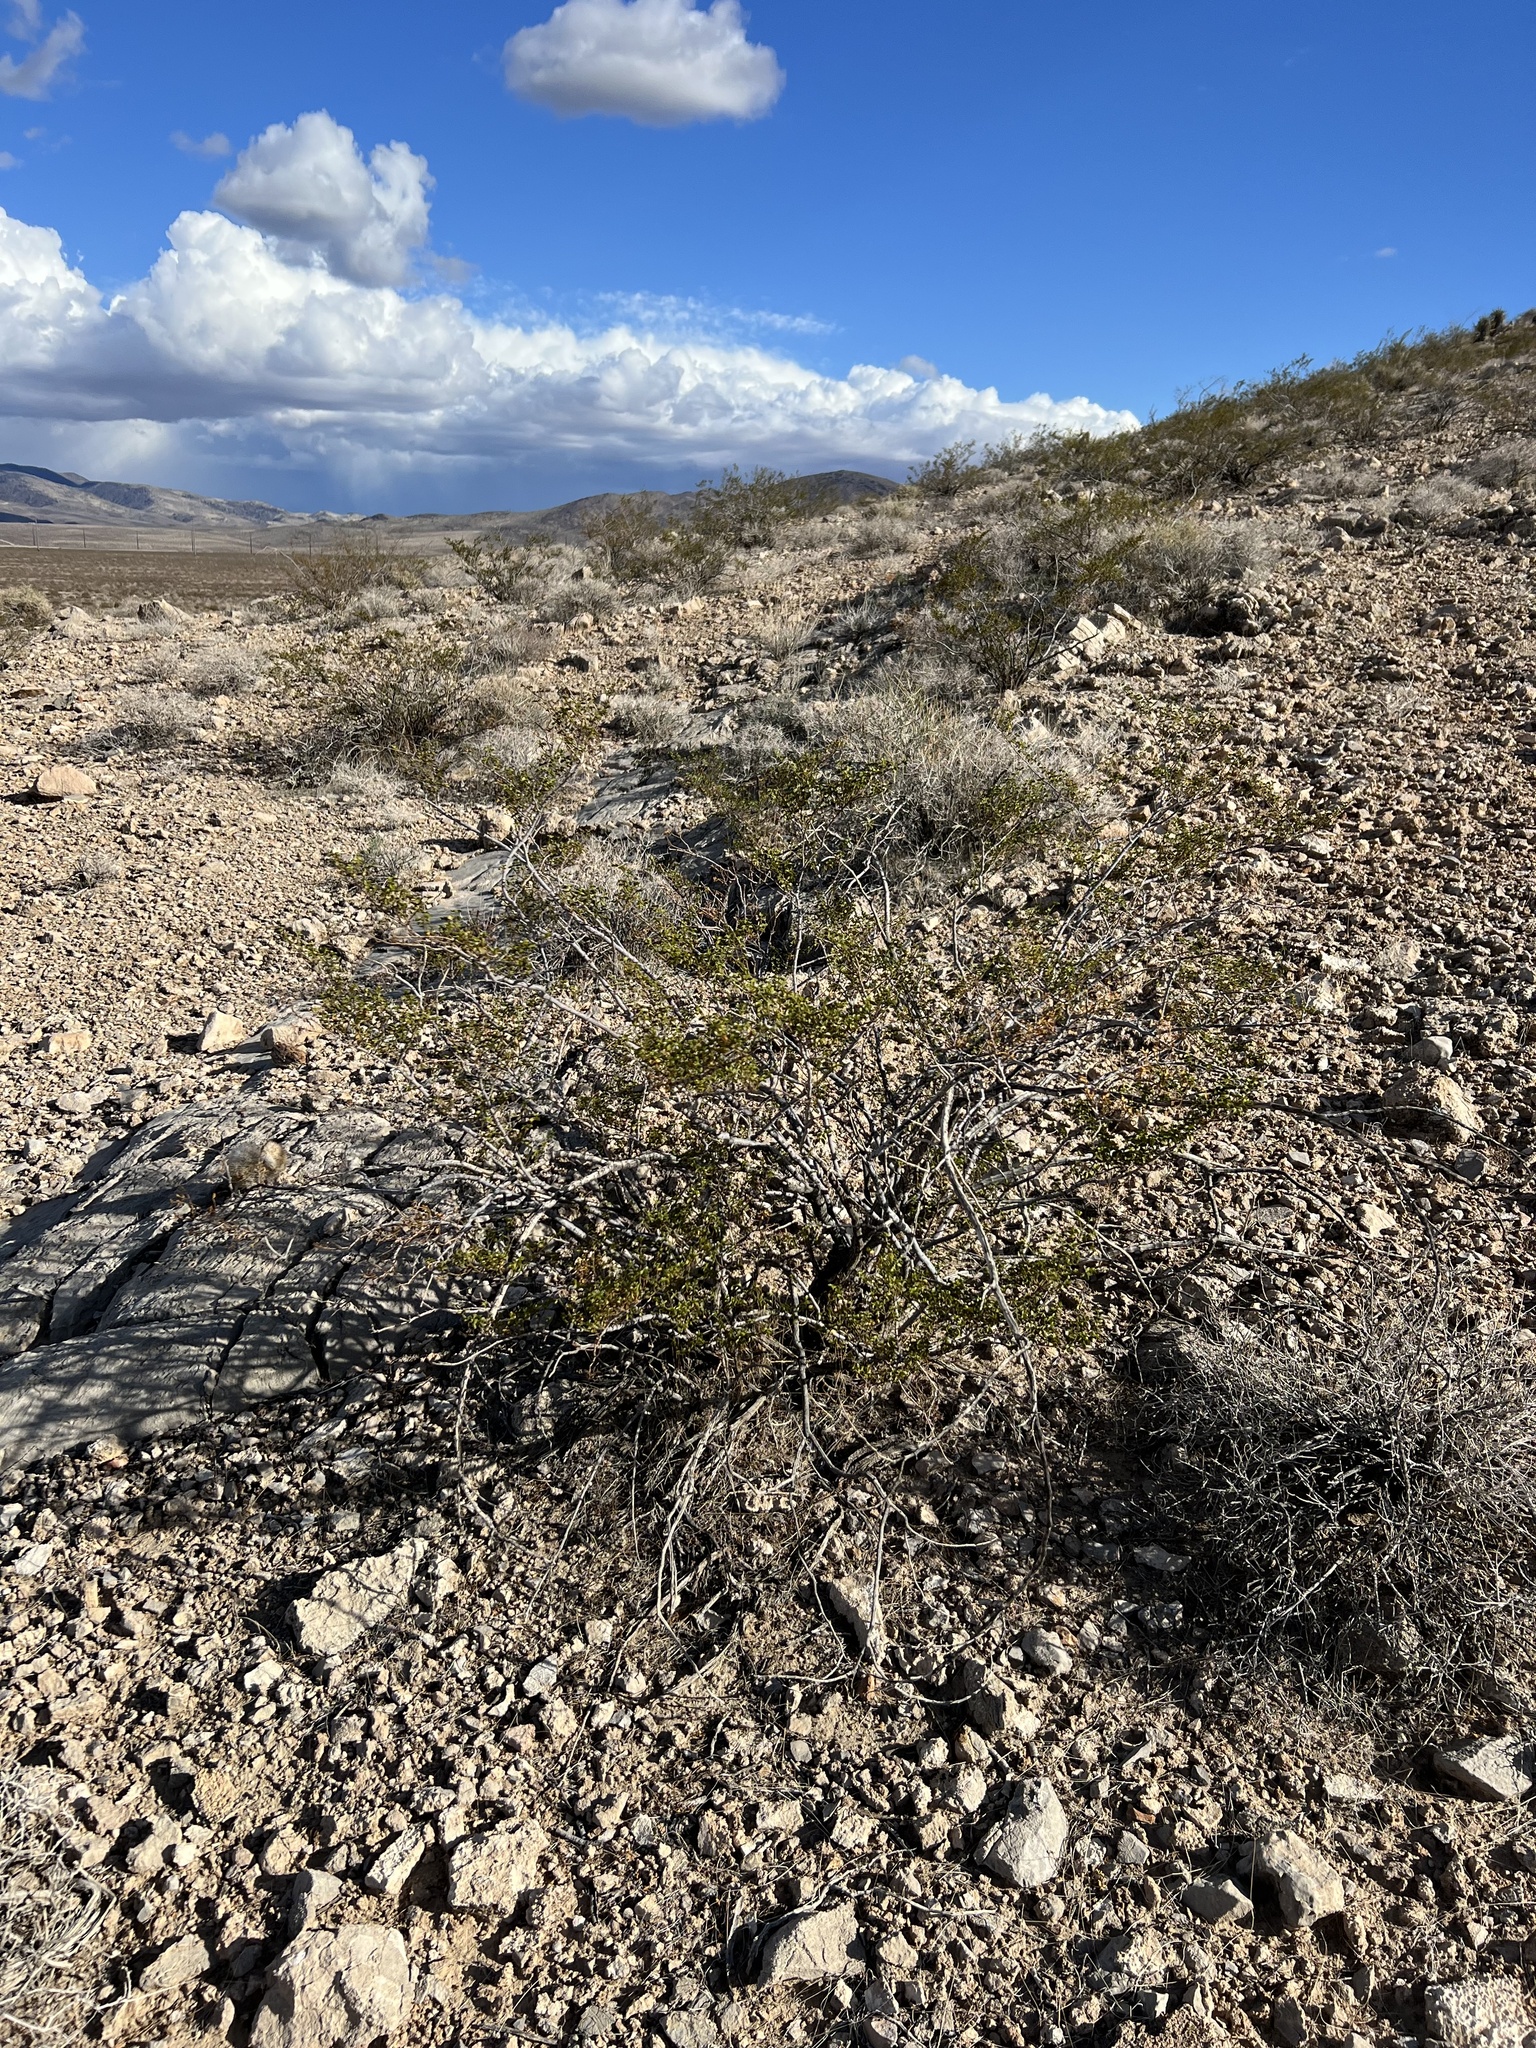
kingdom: Plantae
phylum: Tracheophyta
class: Magnoliopsida
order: Zygophyllales
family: Zygophyllaceae
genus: Larrea
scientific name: Larrea tridentata
